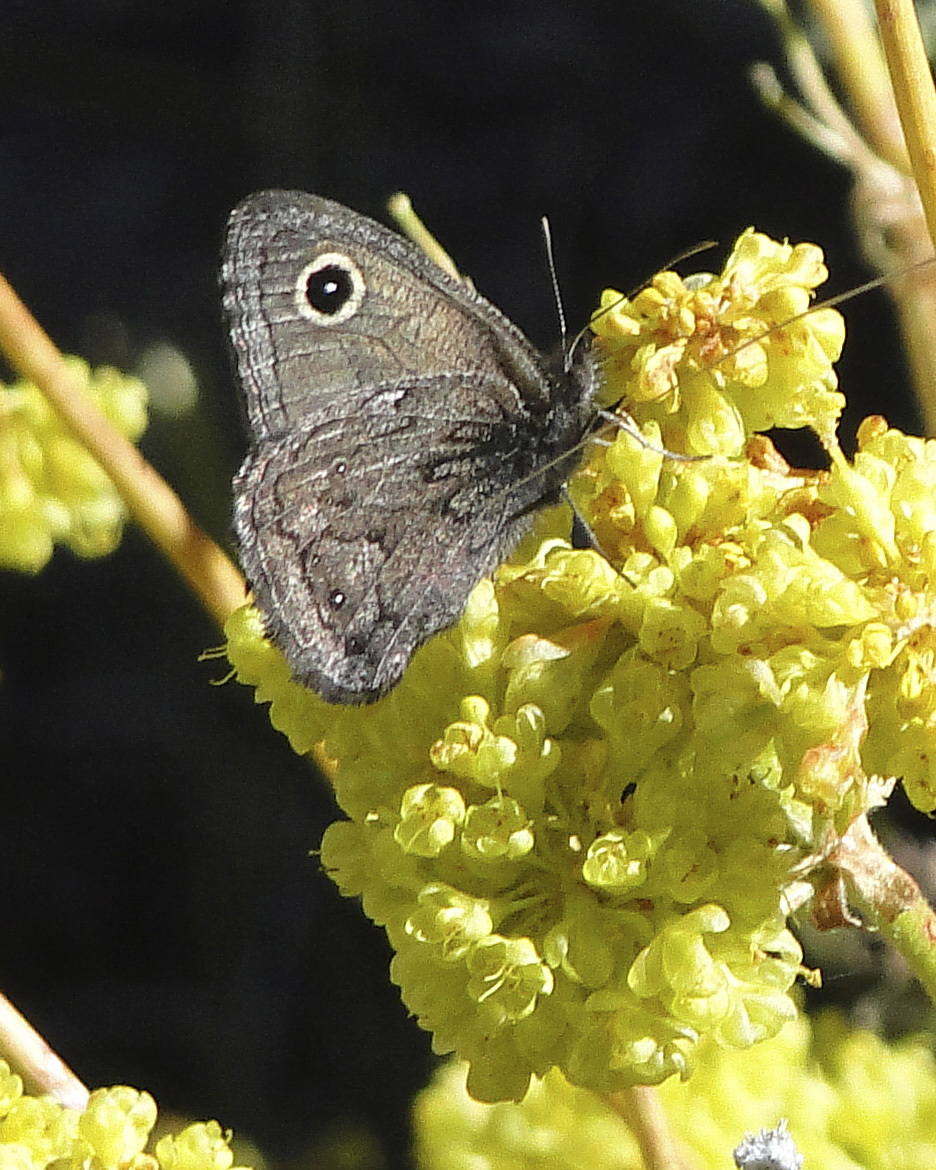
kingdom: Animalia
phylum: Arthropoda
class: Insecta
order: Lepidoptera
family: Nymphalidae
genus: Cercyonis
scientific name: Cercyonis oetus
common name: Small wood-nymph
